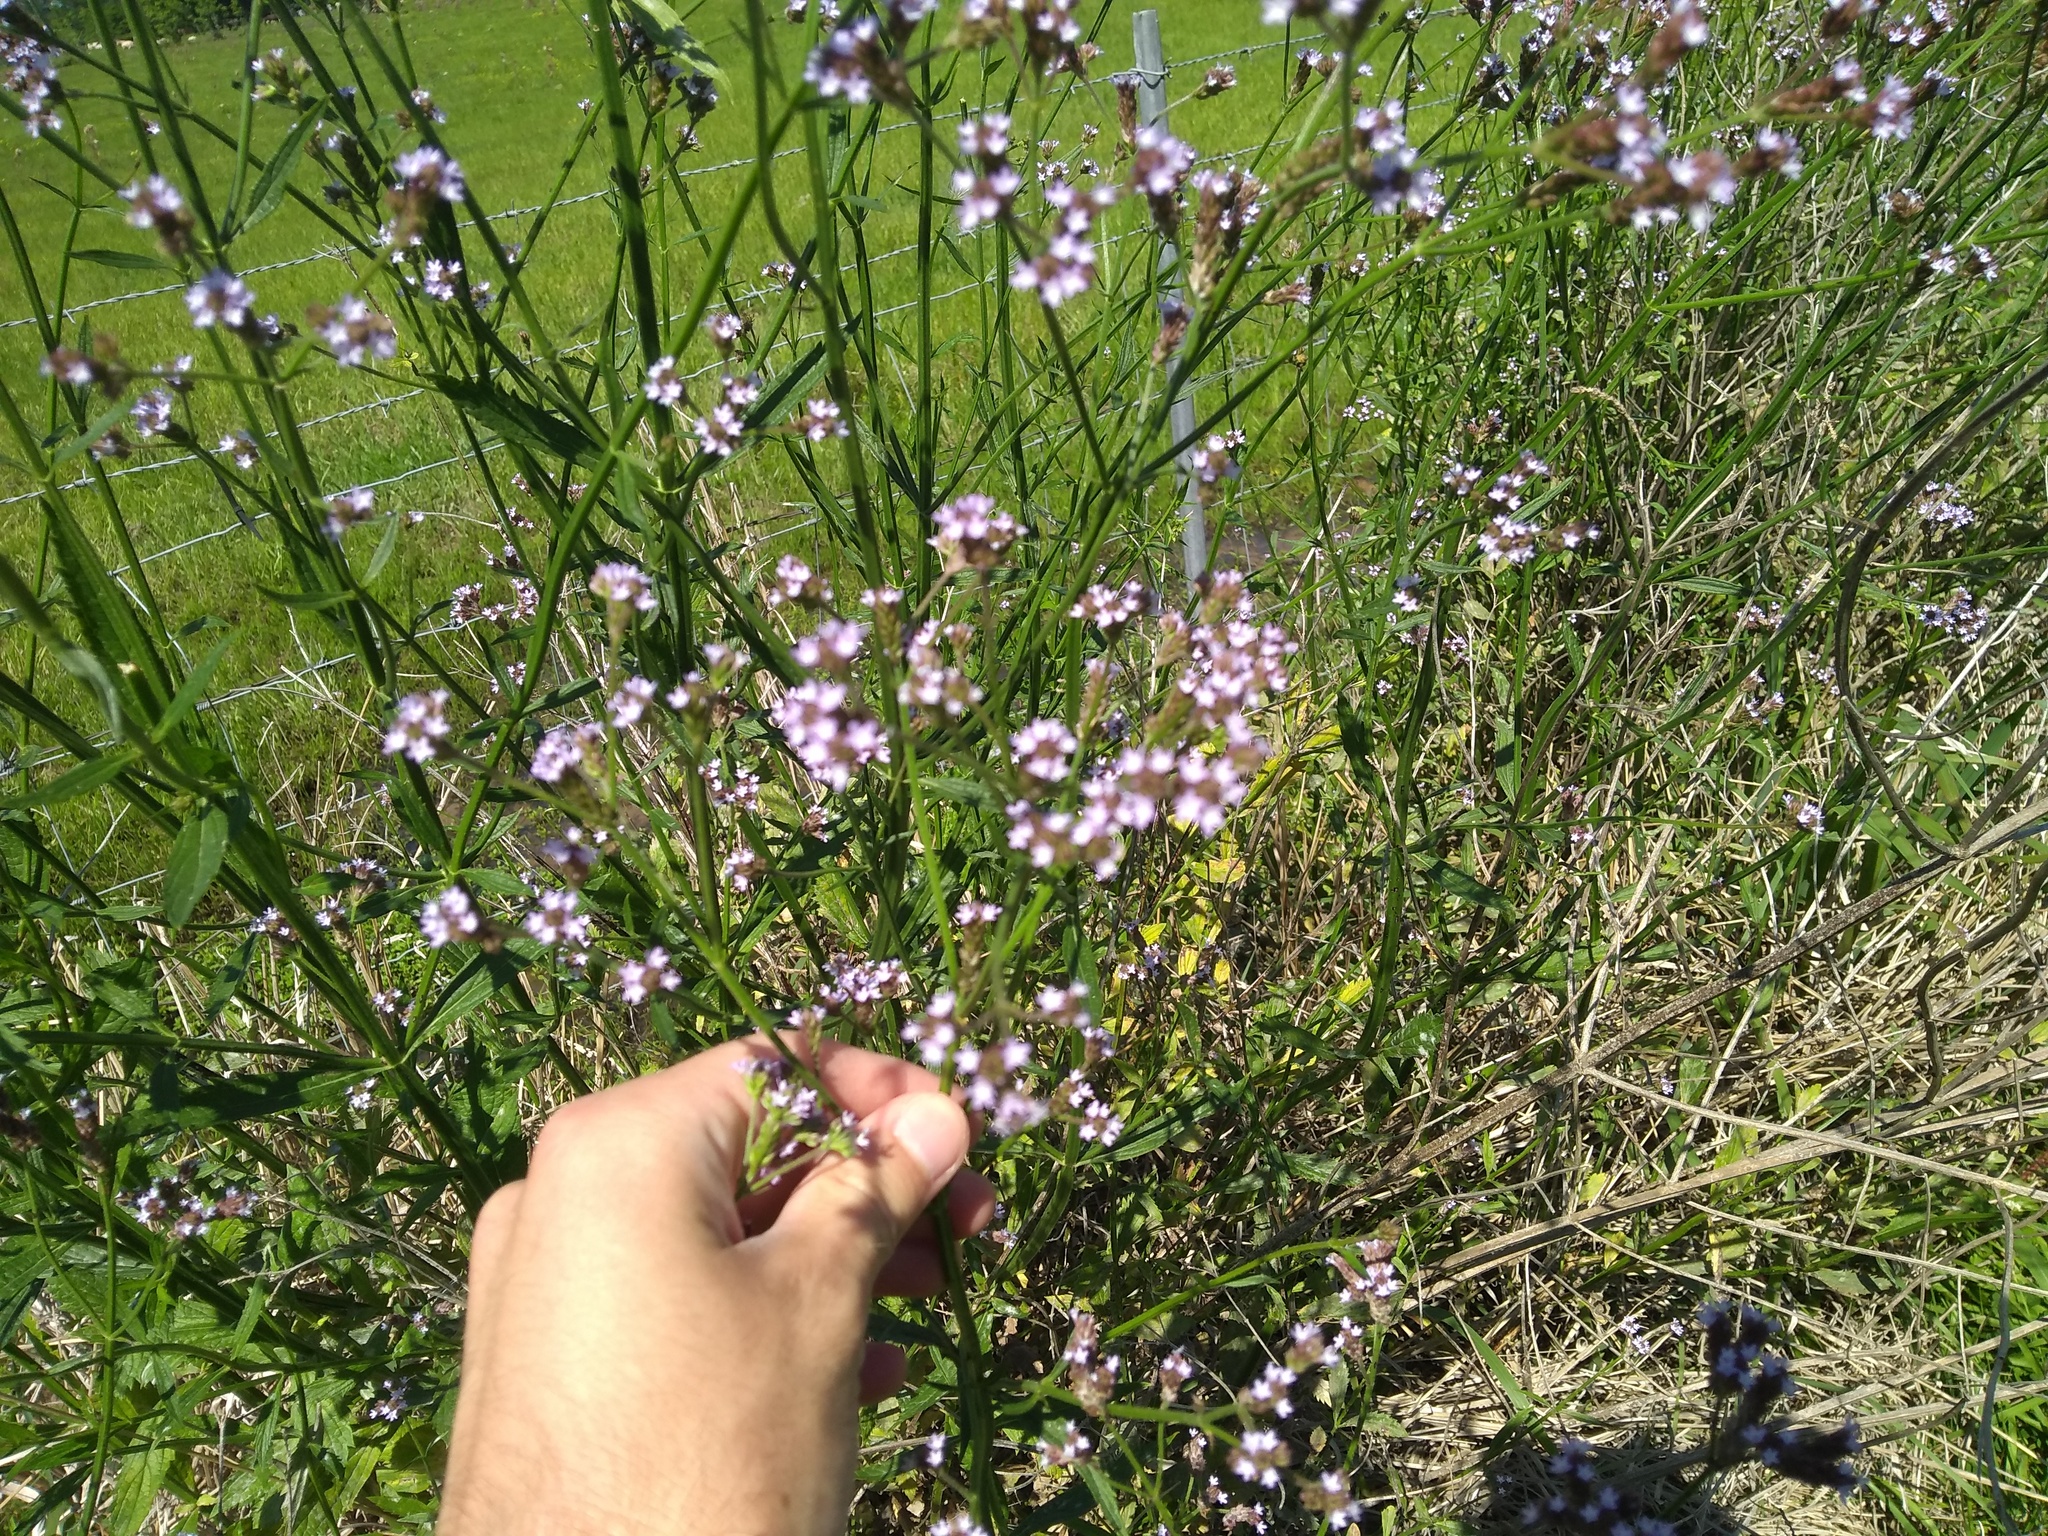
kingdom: Plantae
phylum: Tracheophyta
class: Magnoliopsida
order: Lamiales
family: Verbenaceae
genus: Verbena
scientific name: Verbena brasiliensis
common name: Brazilian vervain
